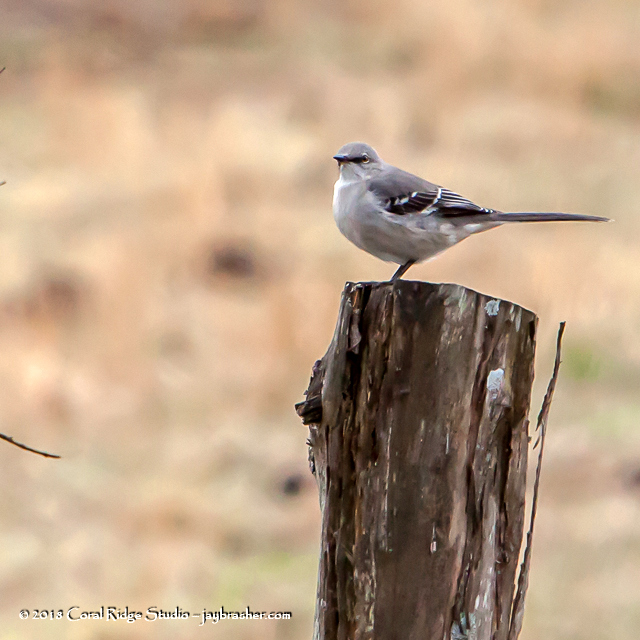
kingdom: Animalia
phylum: Chordata
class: Aves
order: Passeriformes
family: Mimidae
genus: Mimus
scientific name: Mimus polyglottos
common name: Northern mockingbird
